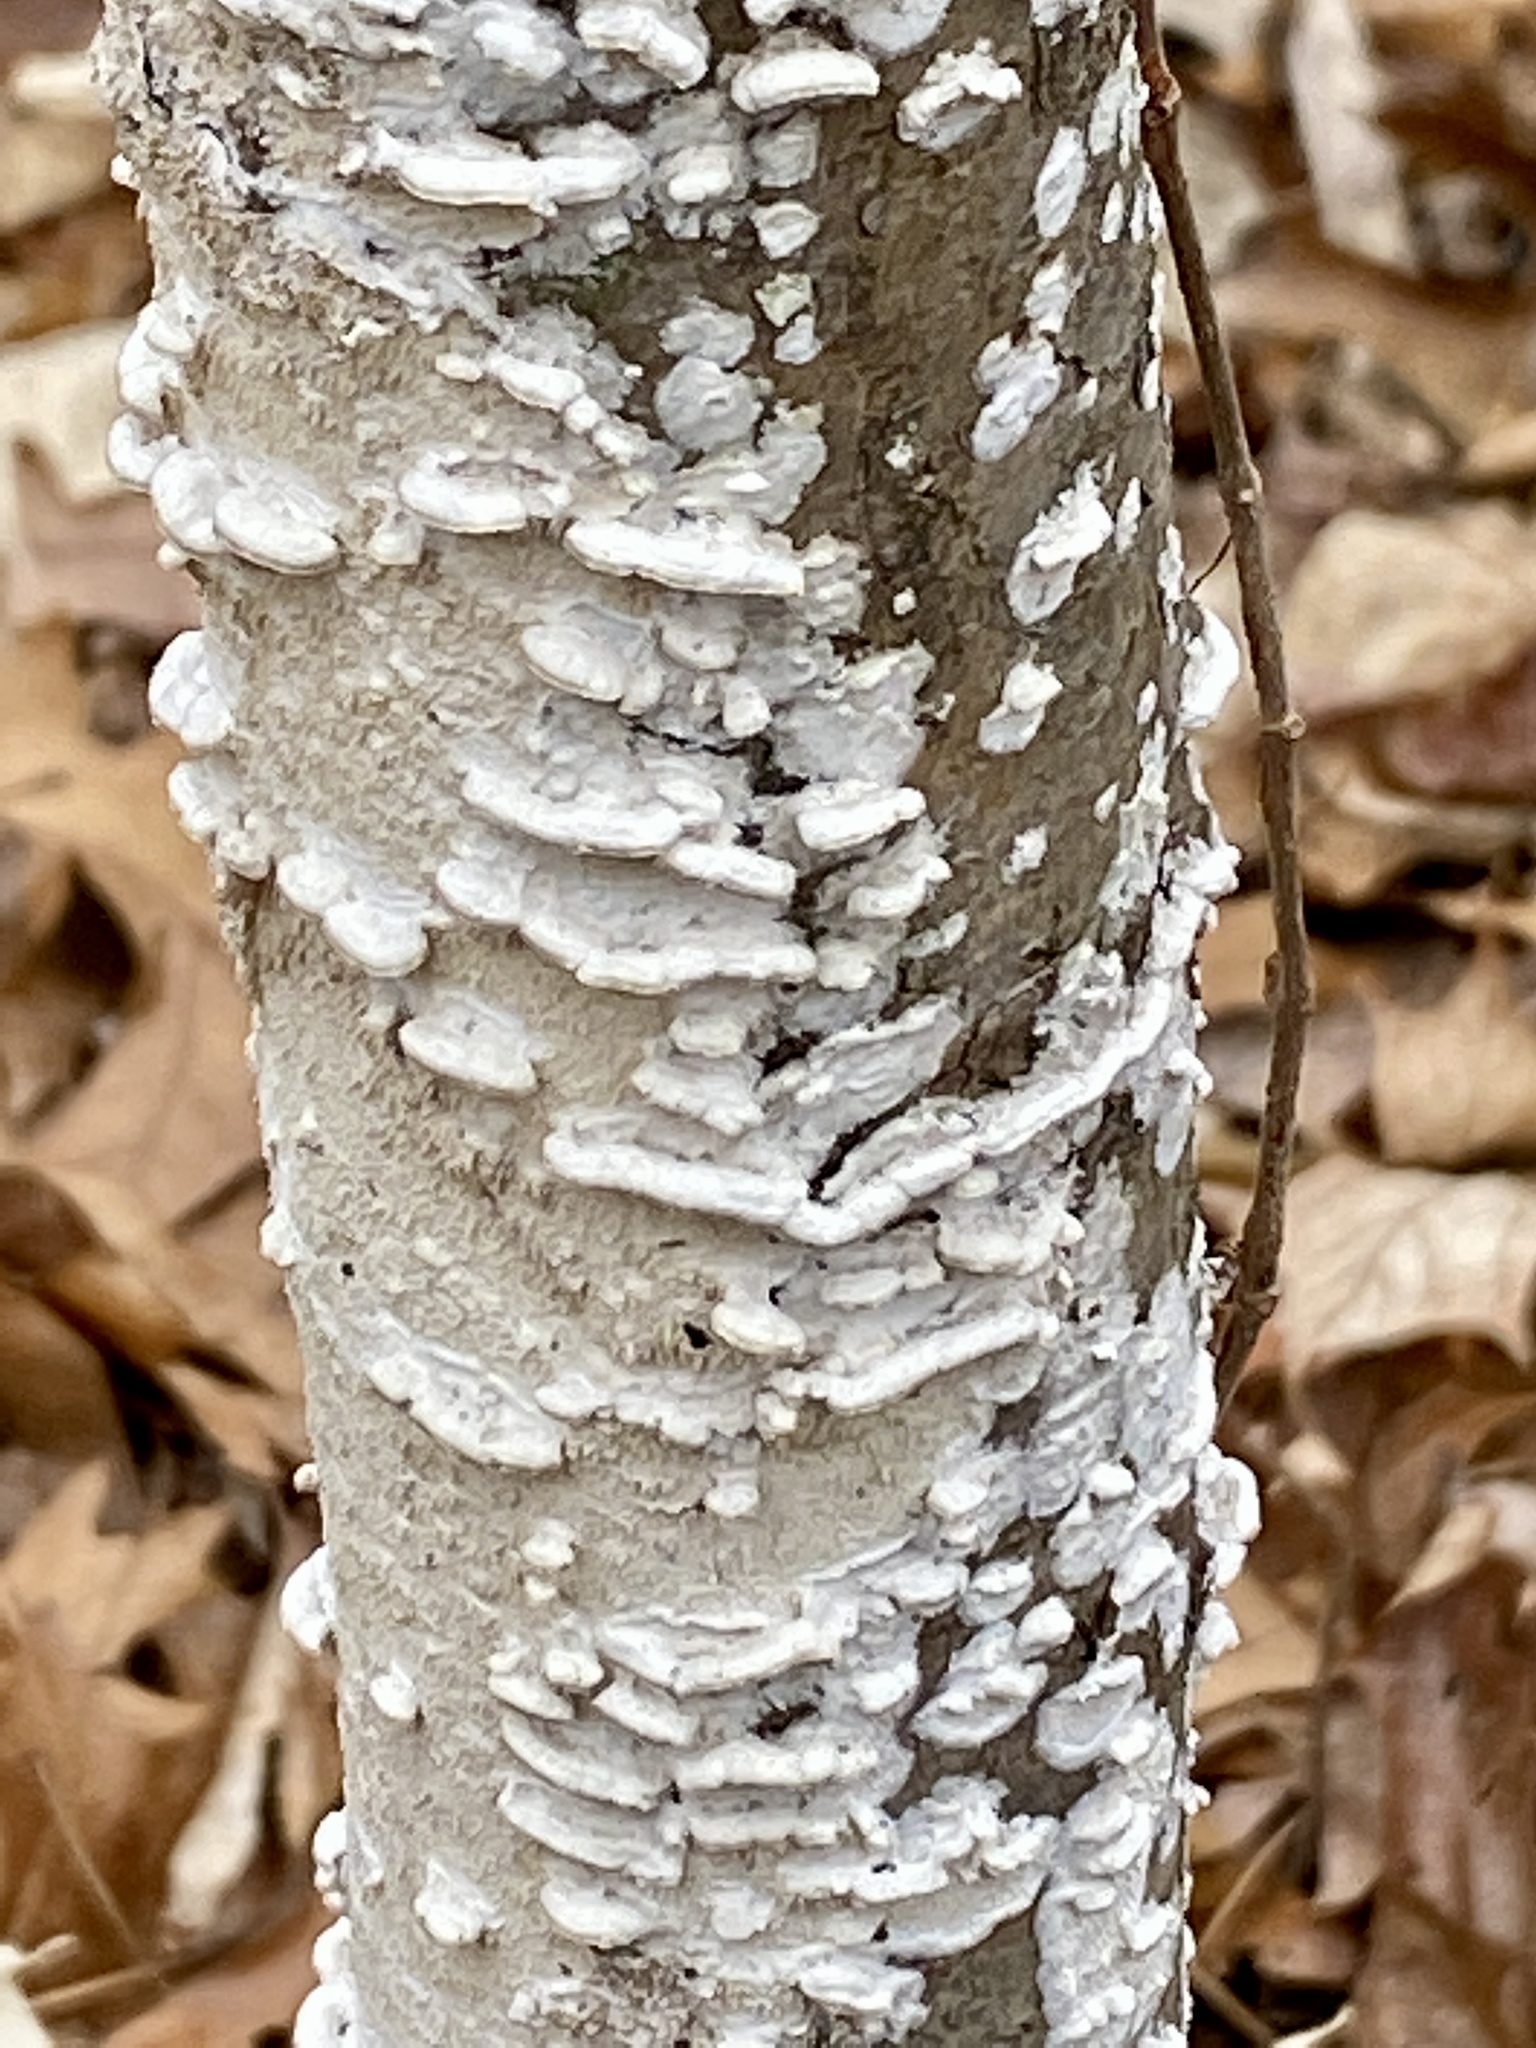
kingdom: Fungi
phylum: Basidiomycota
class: Agaricomycetes
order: Polyporales
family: Irpicaceae
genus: Irpex
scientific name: Irpex lacteus
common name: Milk-white toothed polypore
